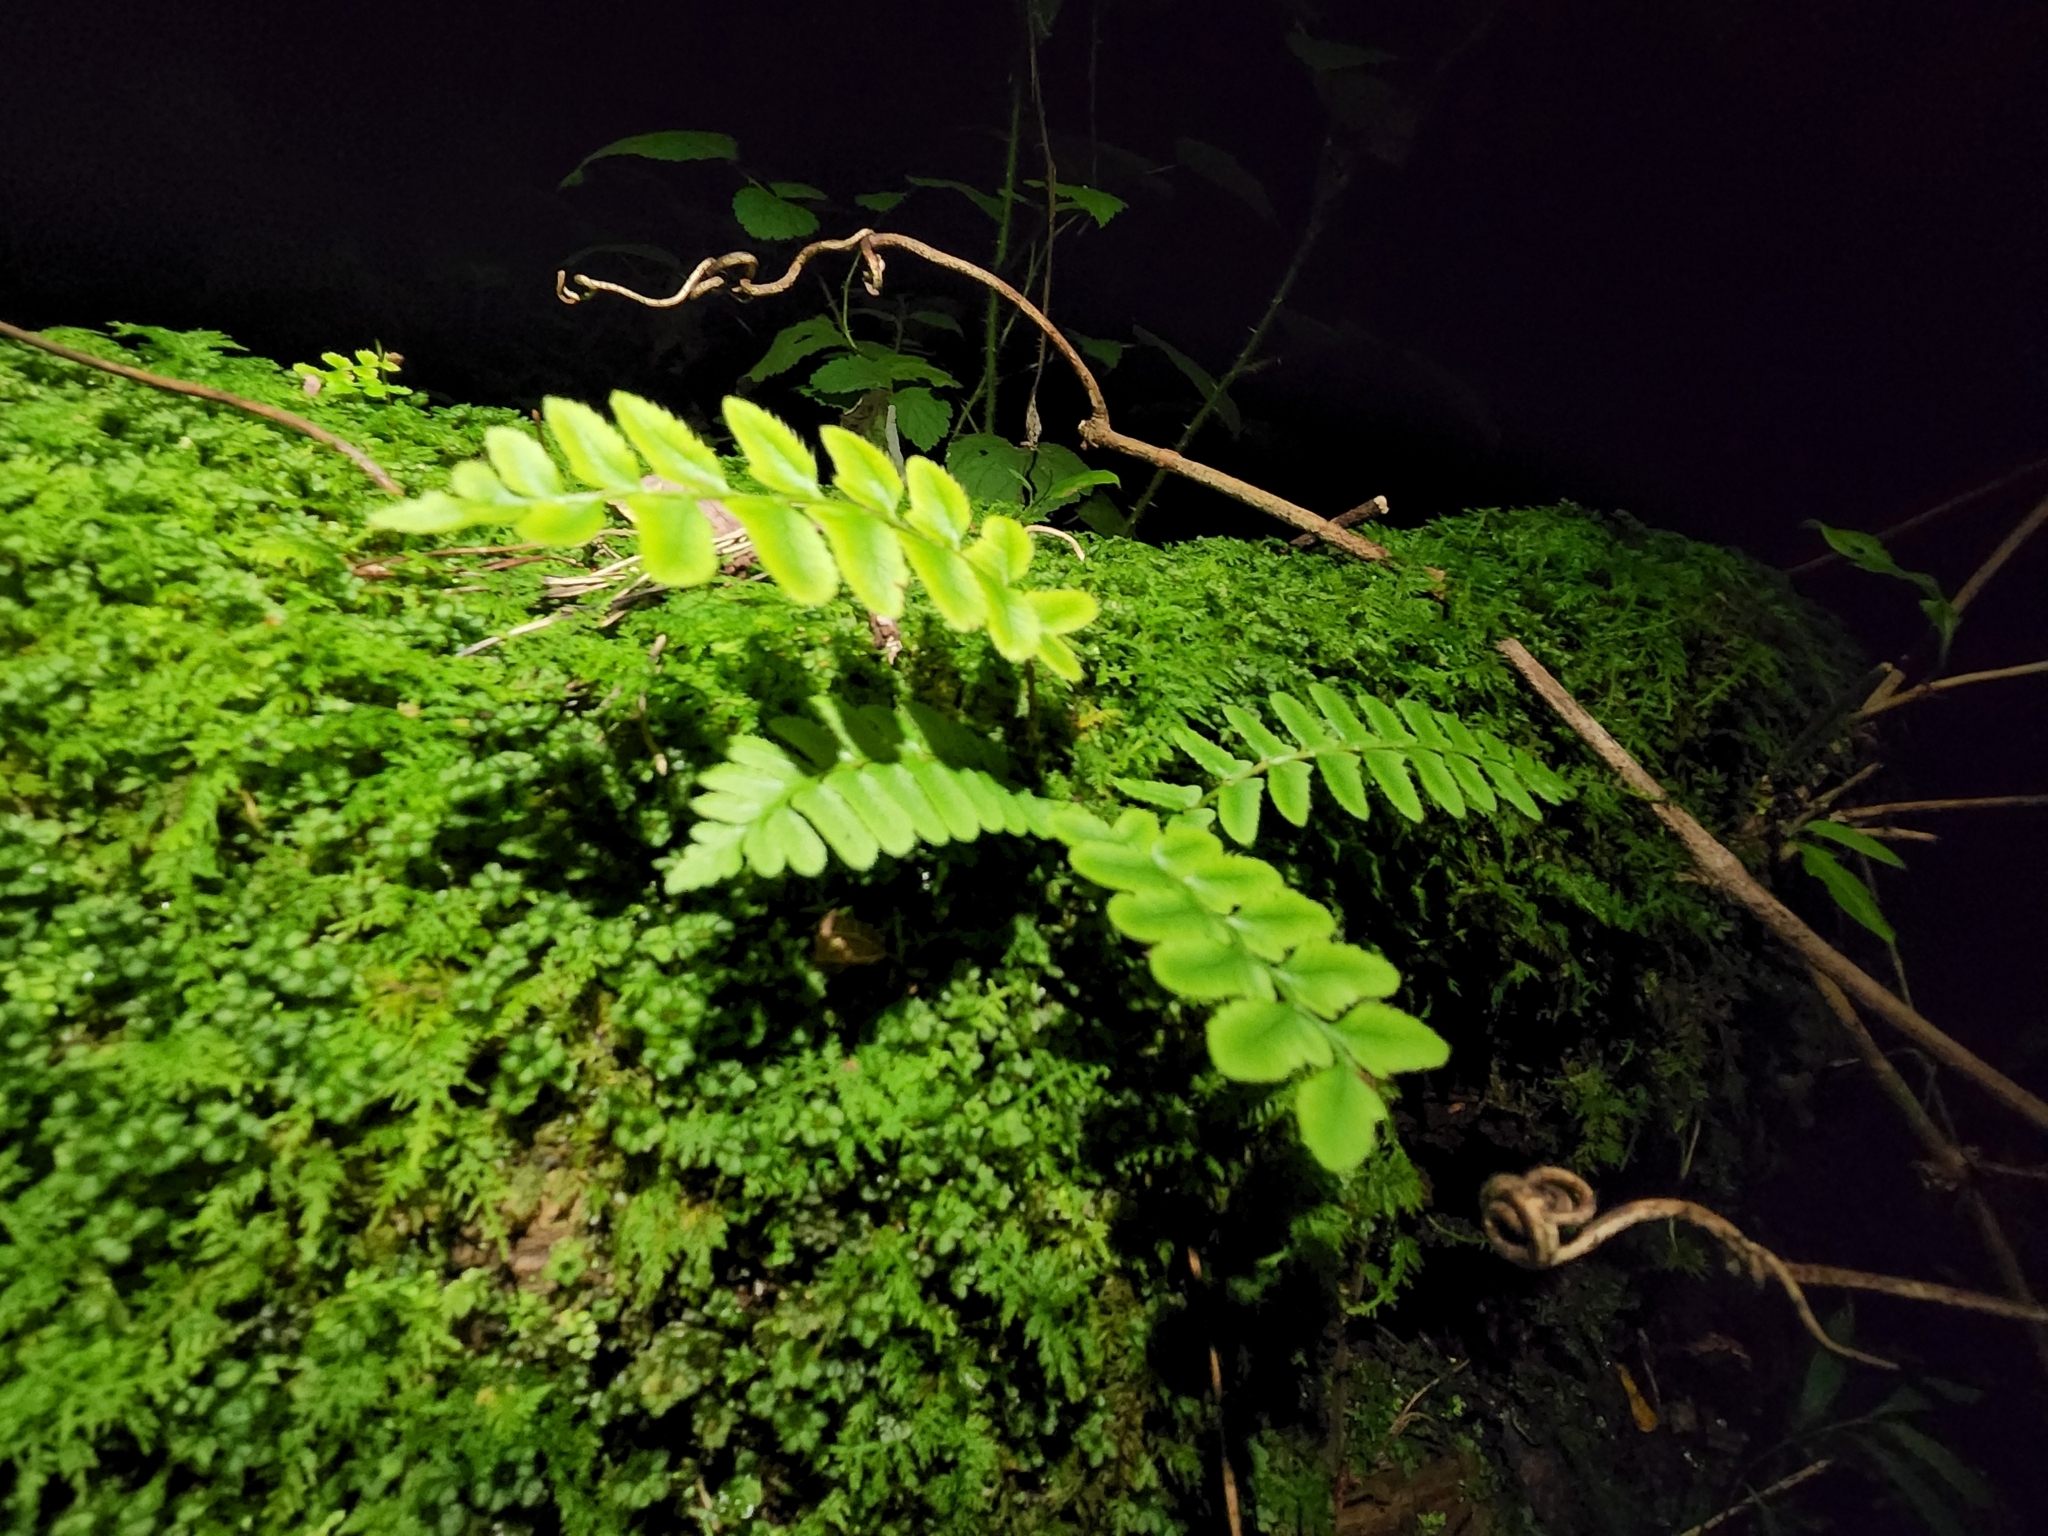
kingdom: Plantae
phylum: Tracheophyta
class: Polypodiopsida
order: Polypodiales
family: Dryopteridaceae
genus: Polystichum
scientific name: Polystichum acrostichoides
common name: Christmas fern
